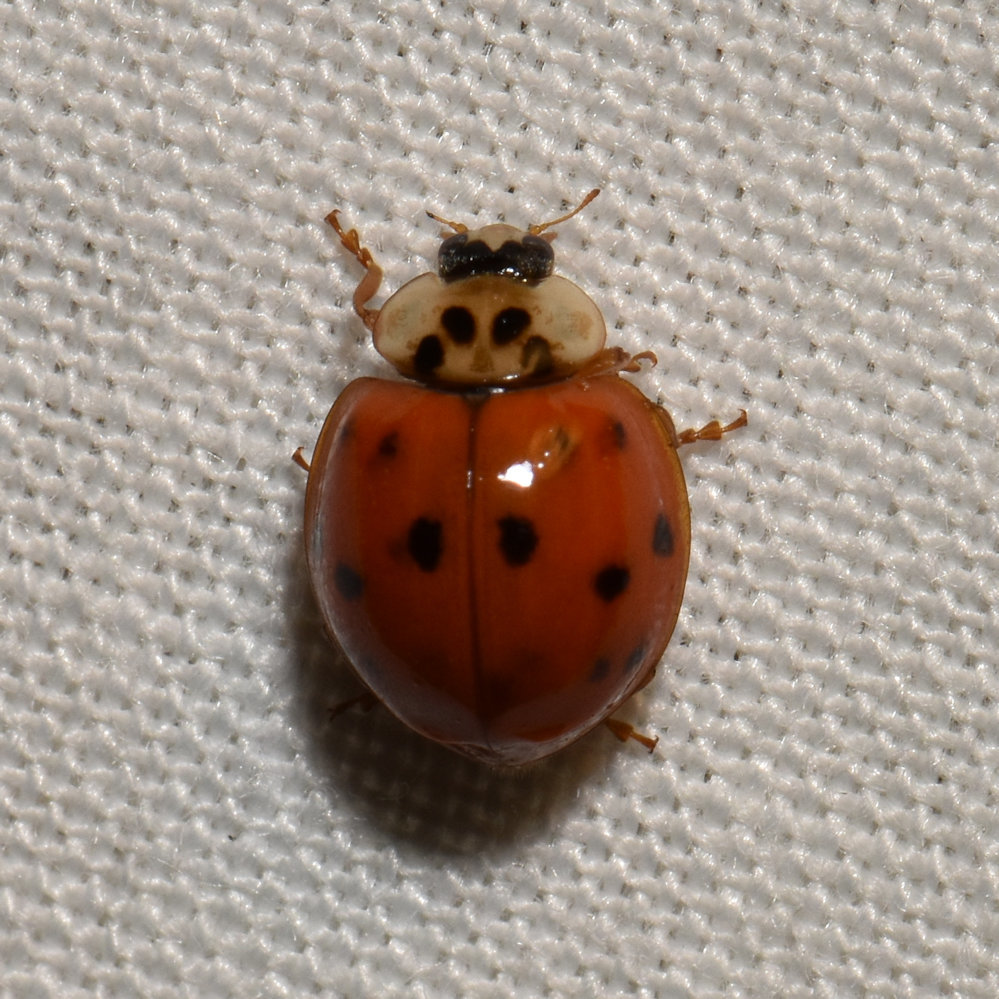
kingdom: Animalia
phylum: Arthropoda
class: Insecta
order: Coleoptera
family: Coccinellidae
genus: Harmonia
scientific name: Harmonia axyridis
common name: Harlequin ladybird
